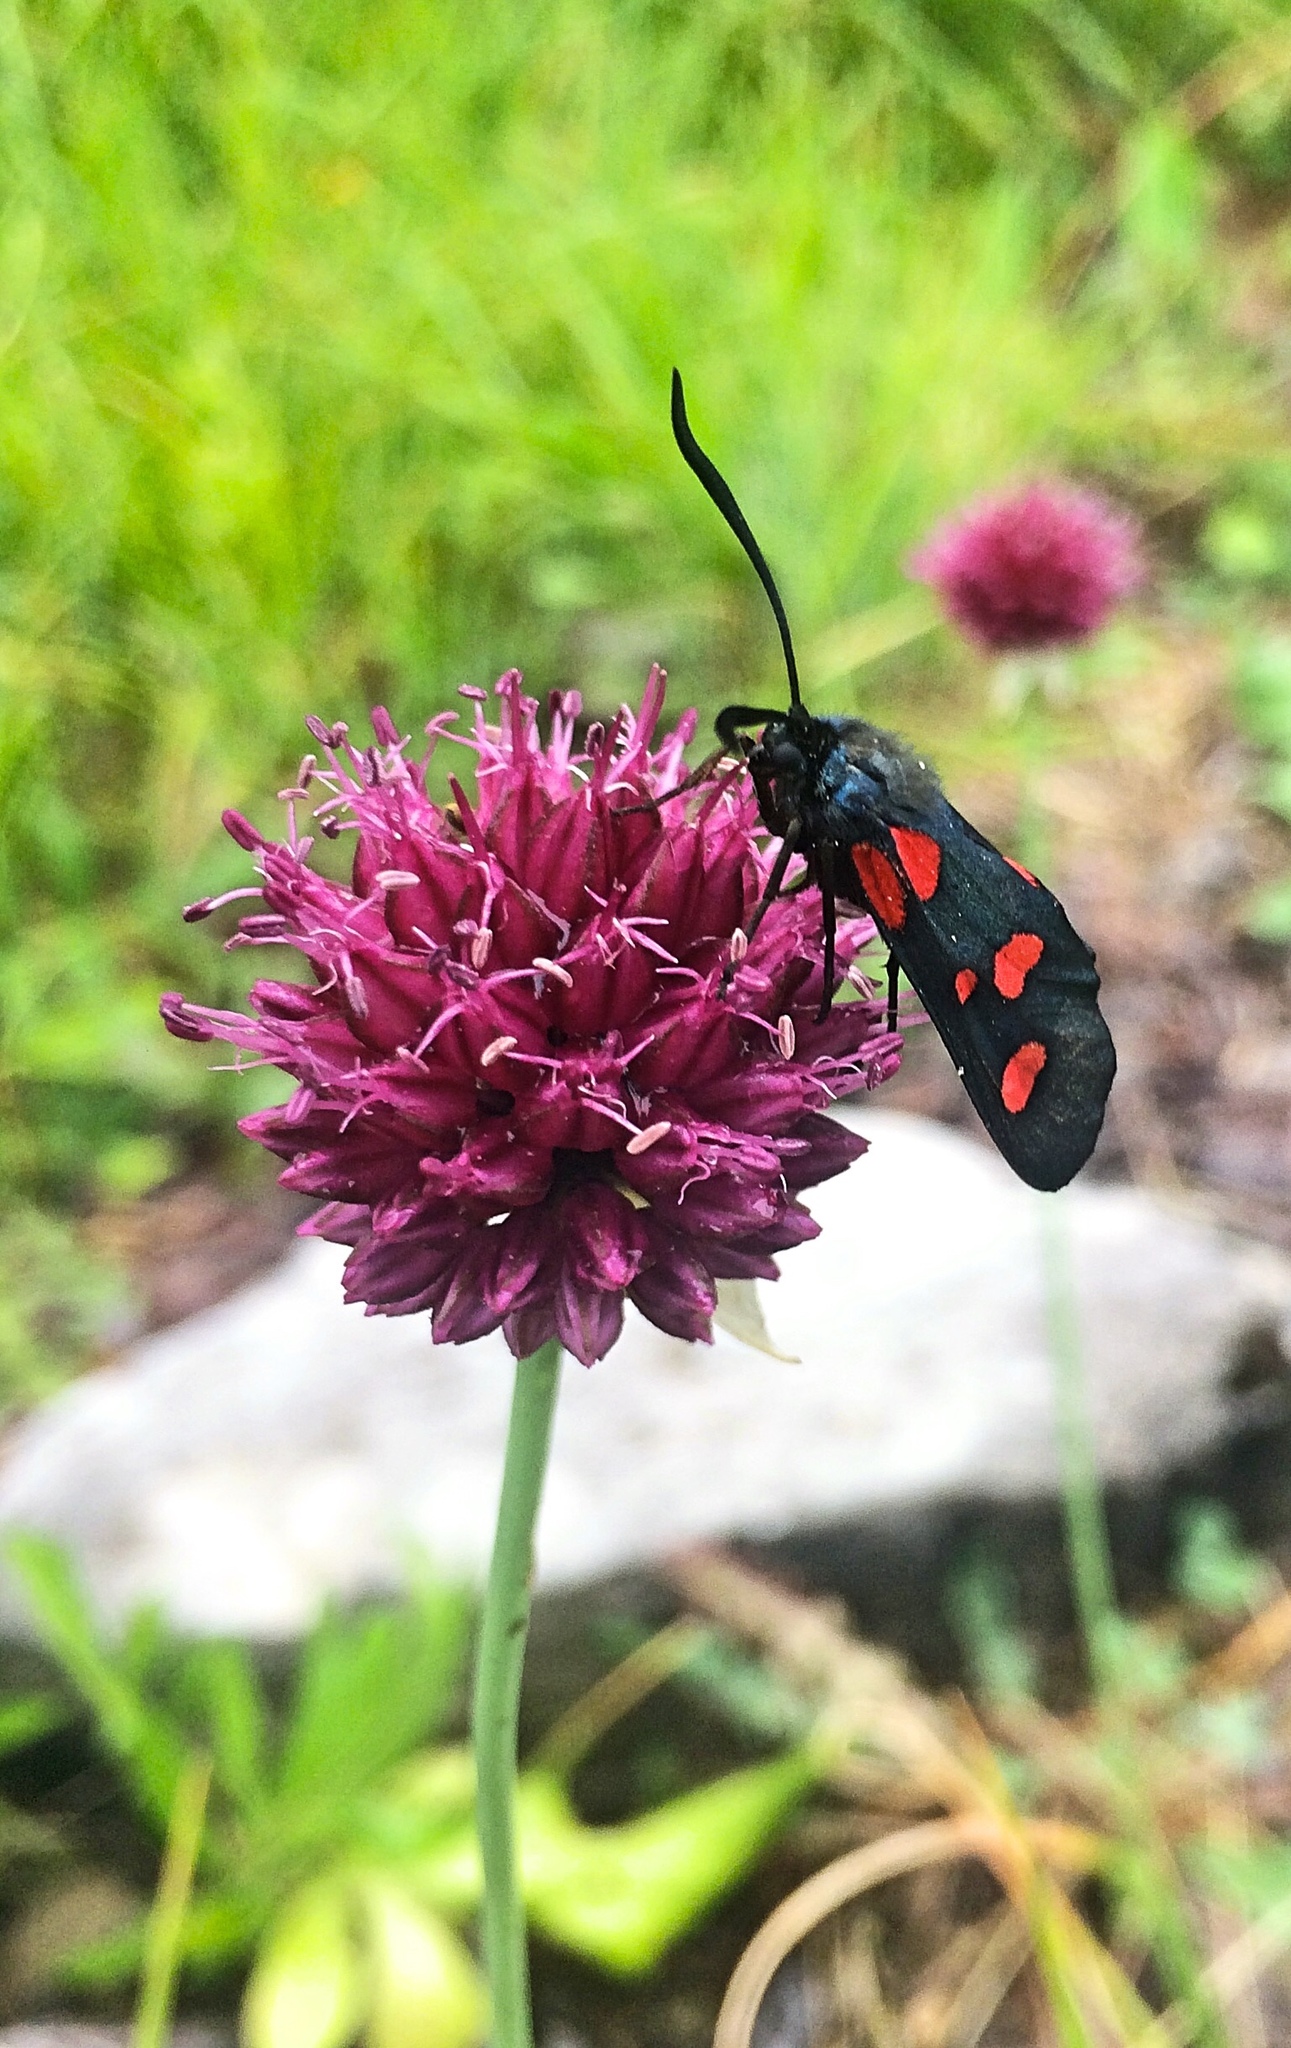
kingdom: Animalia
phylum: Arthropoda
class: Insecta
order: Lepidoptera
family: Zygaenidae
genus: Zygaena
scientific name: Zygaena lonicerae
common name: Narrow-bordered five-spot burnet
